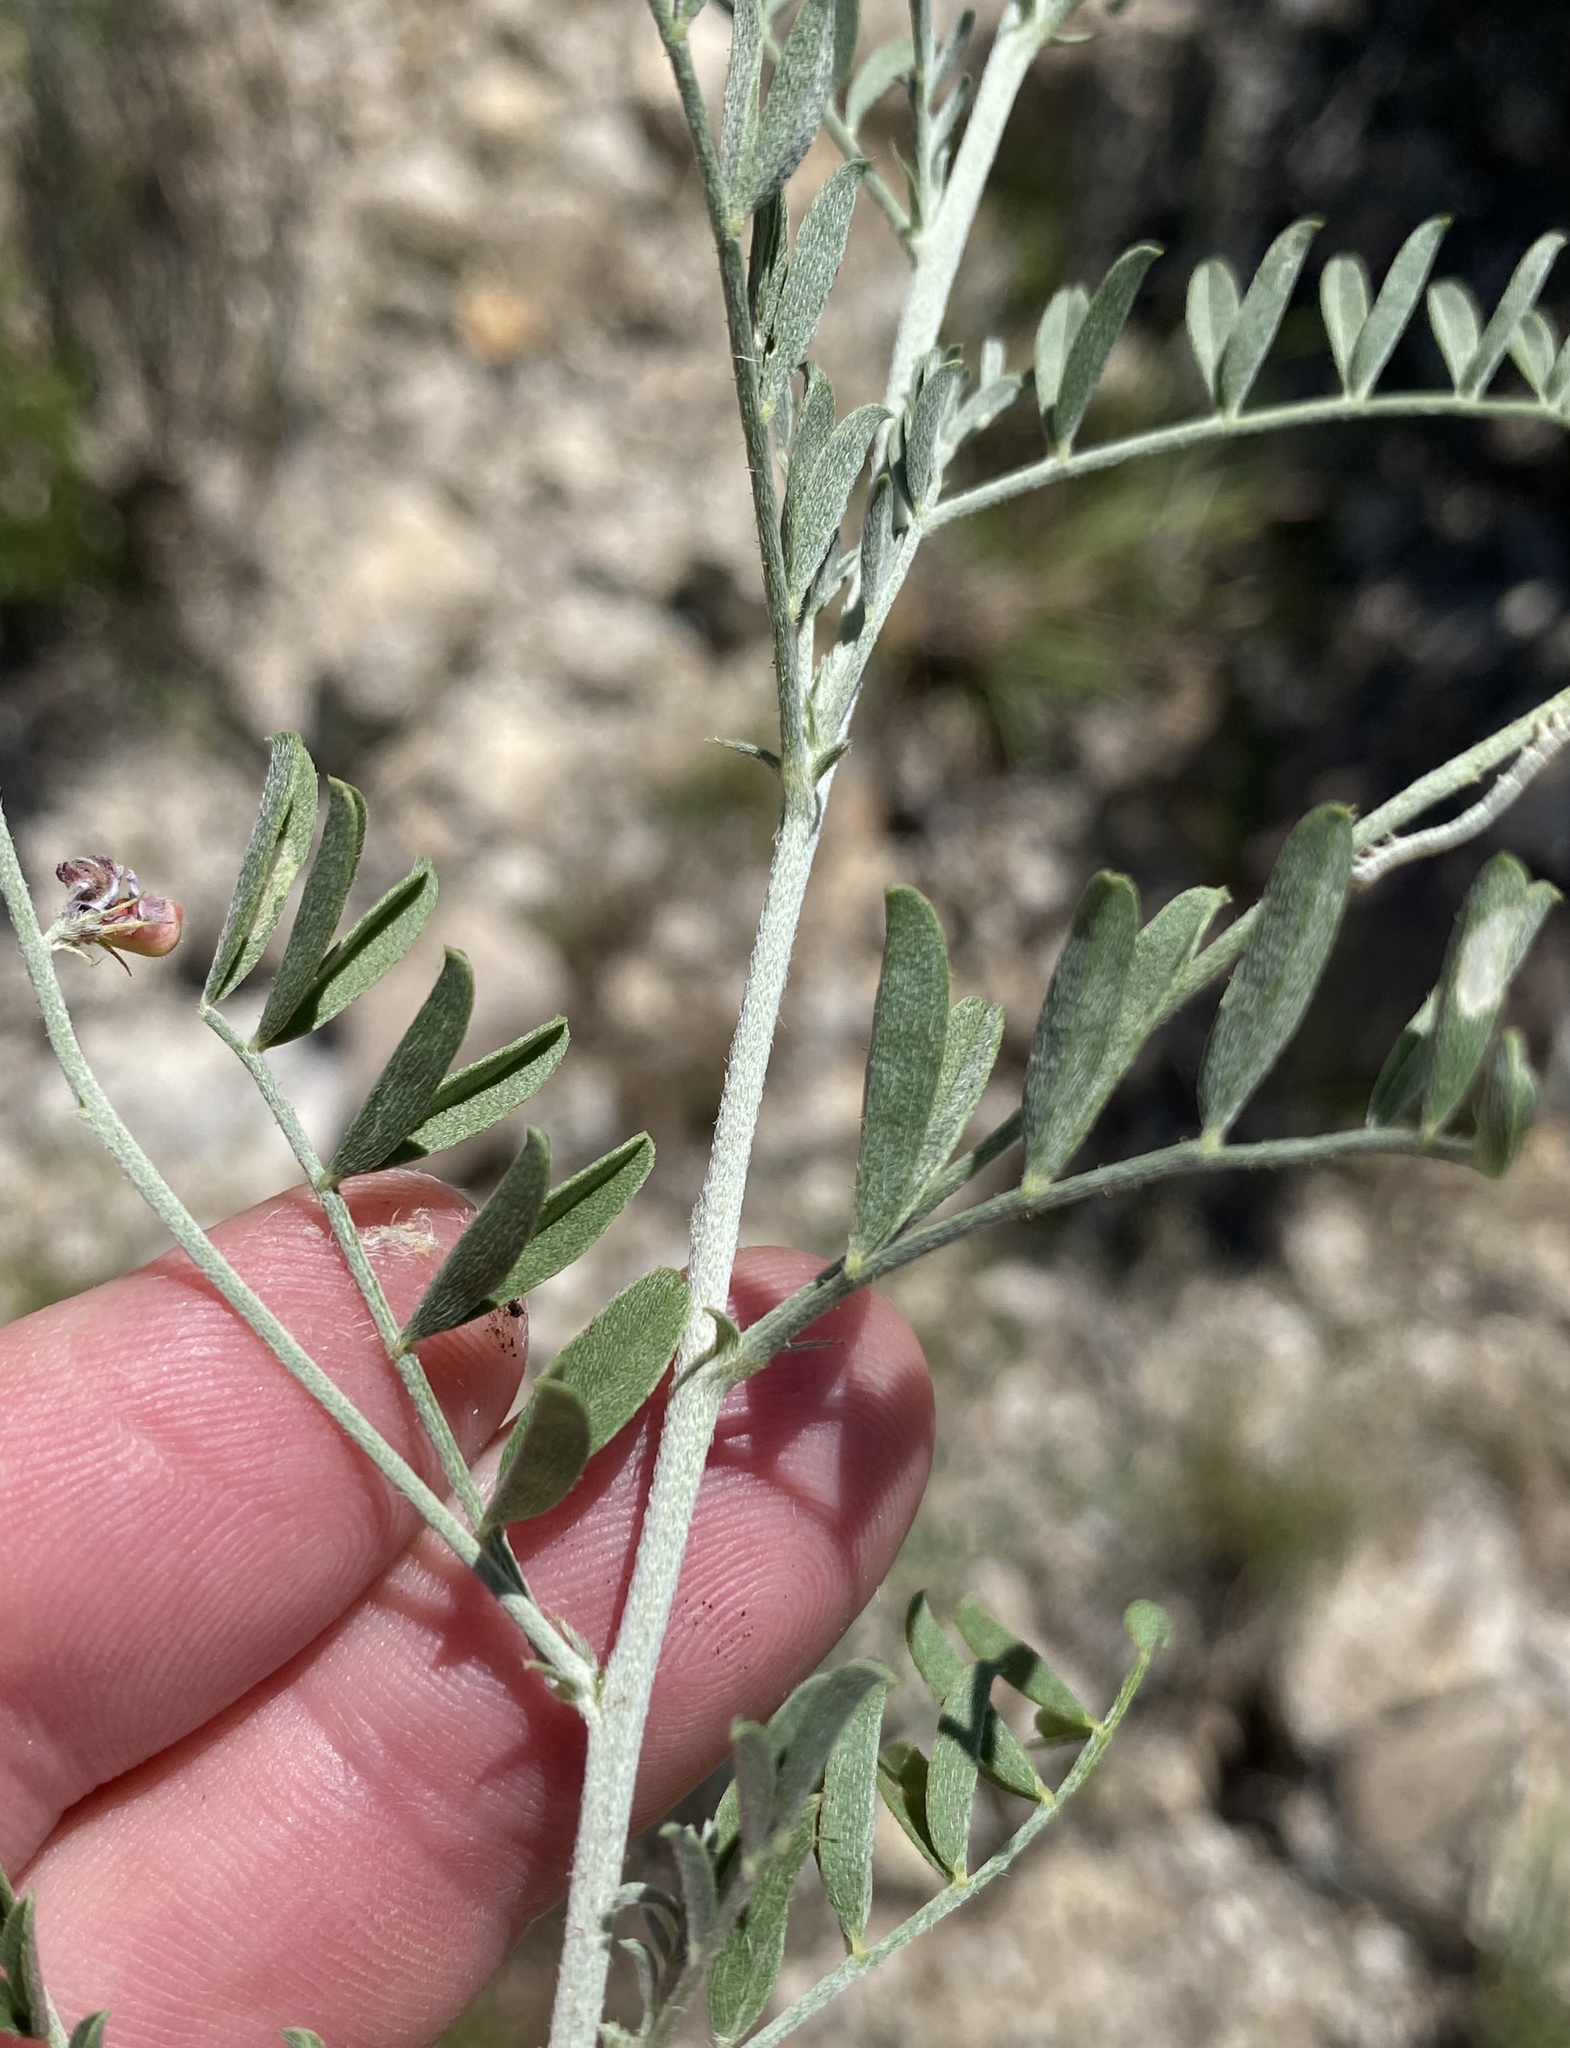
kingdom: Plantae
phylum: Tracheophyta
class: Magnoliopsida
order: Fabales
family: Fabaceae
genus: Indigofera
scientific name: Indigofera heterotricha
